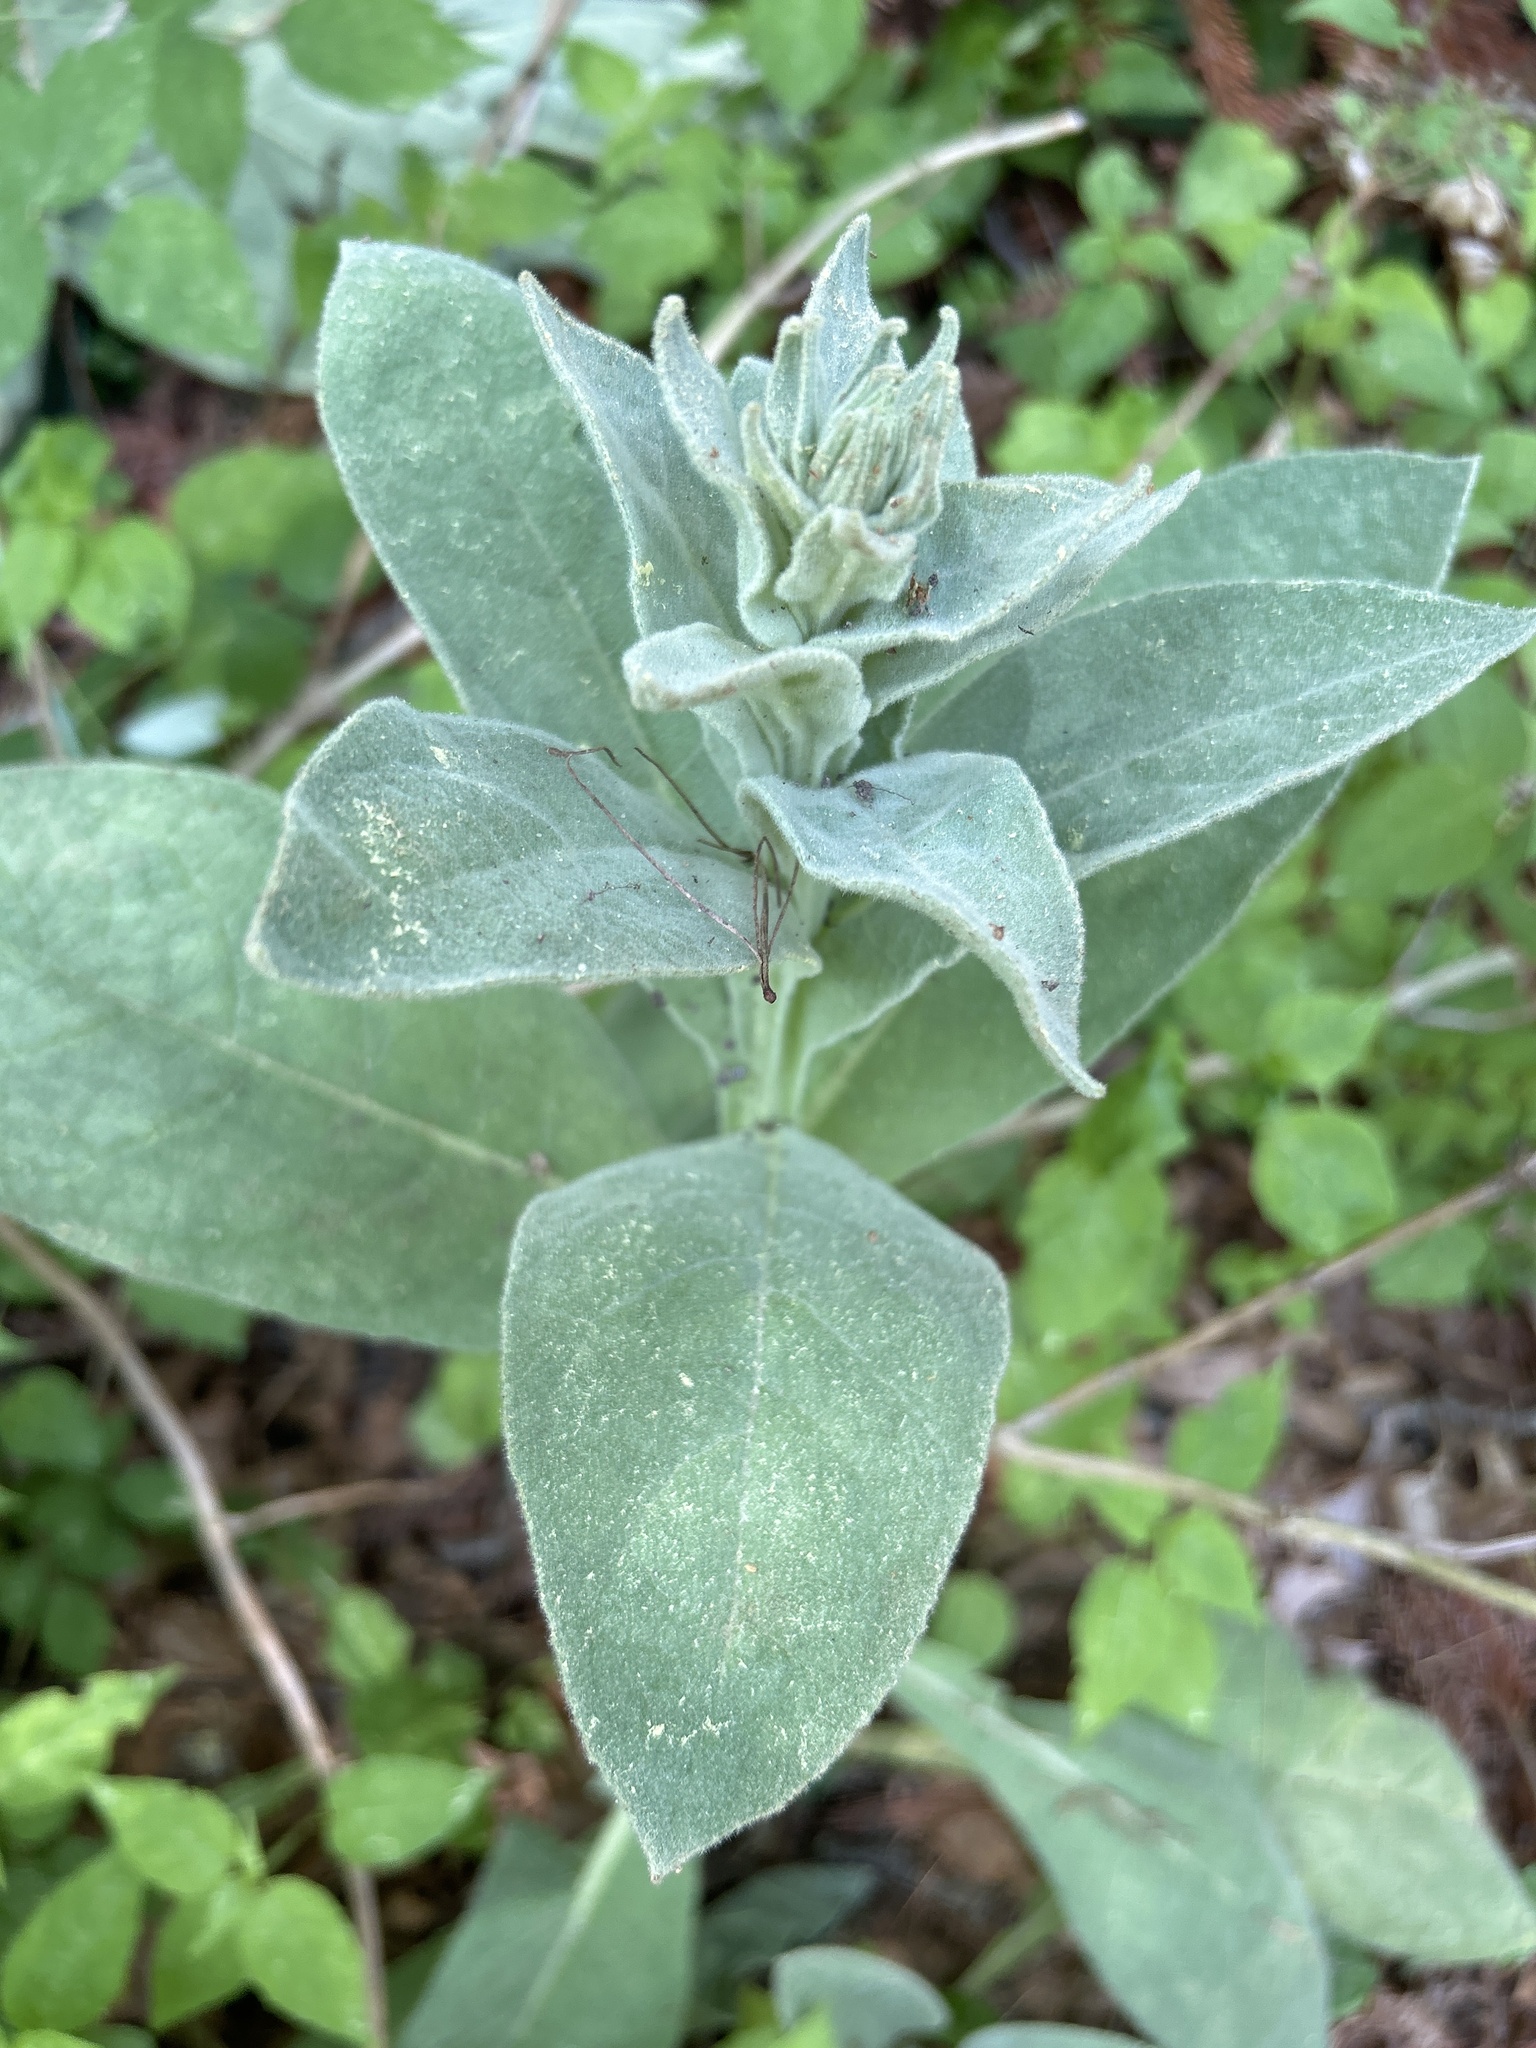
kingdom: Plantae
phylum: Tracheophyta
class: Magnoliopsida
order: Lamiales
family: Scrophulariaceae
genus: Verbascum
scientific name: Verbascum thapsus
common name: Common mullein
